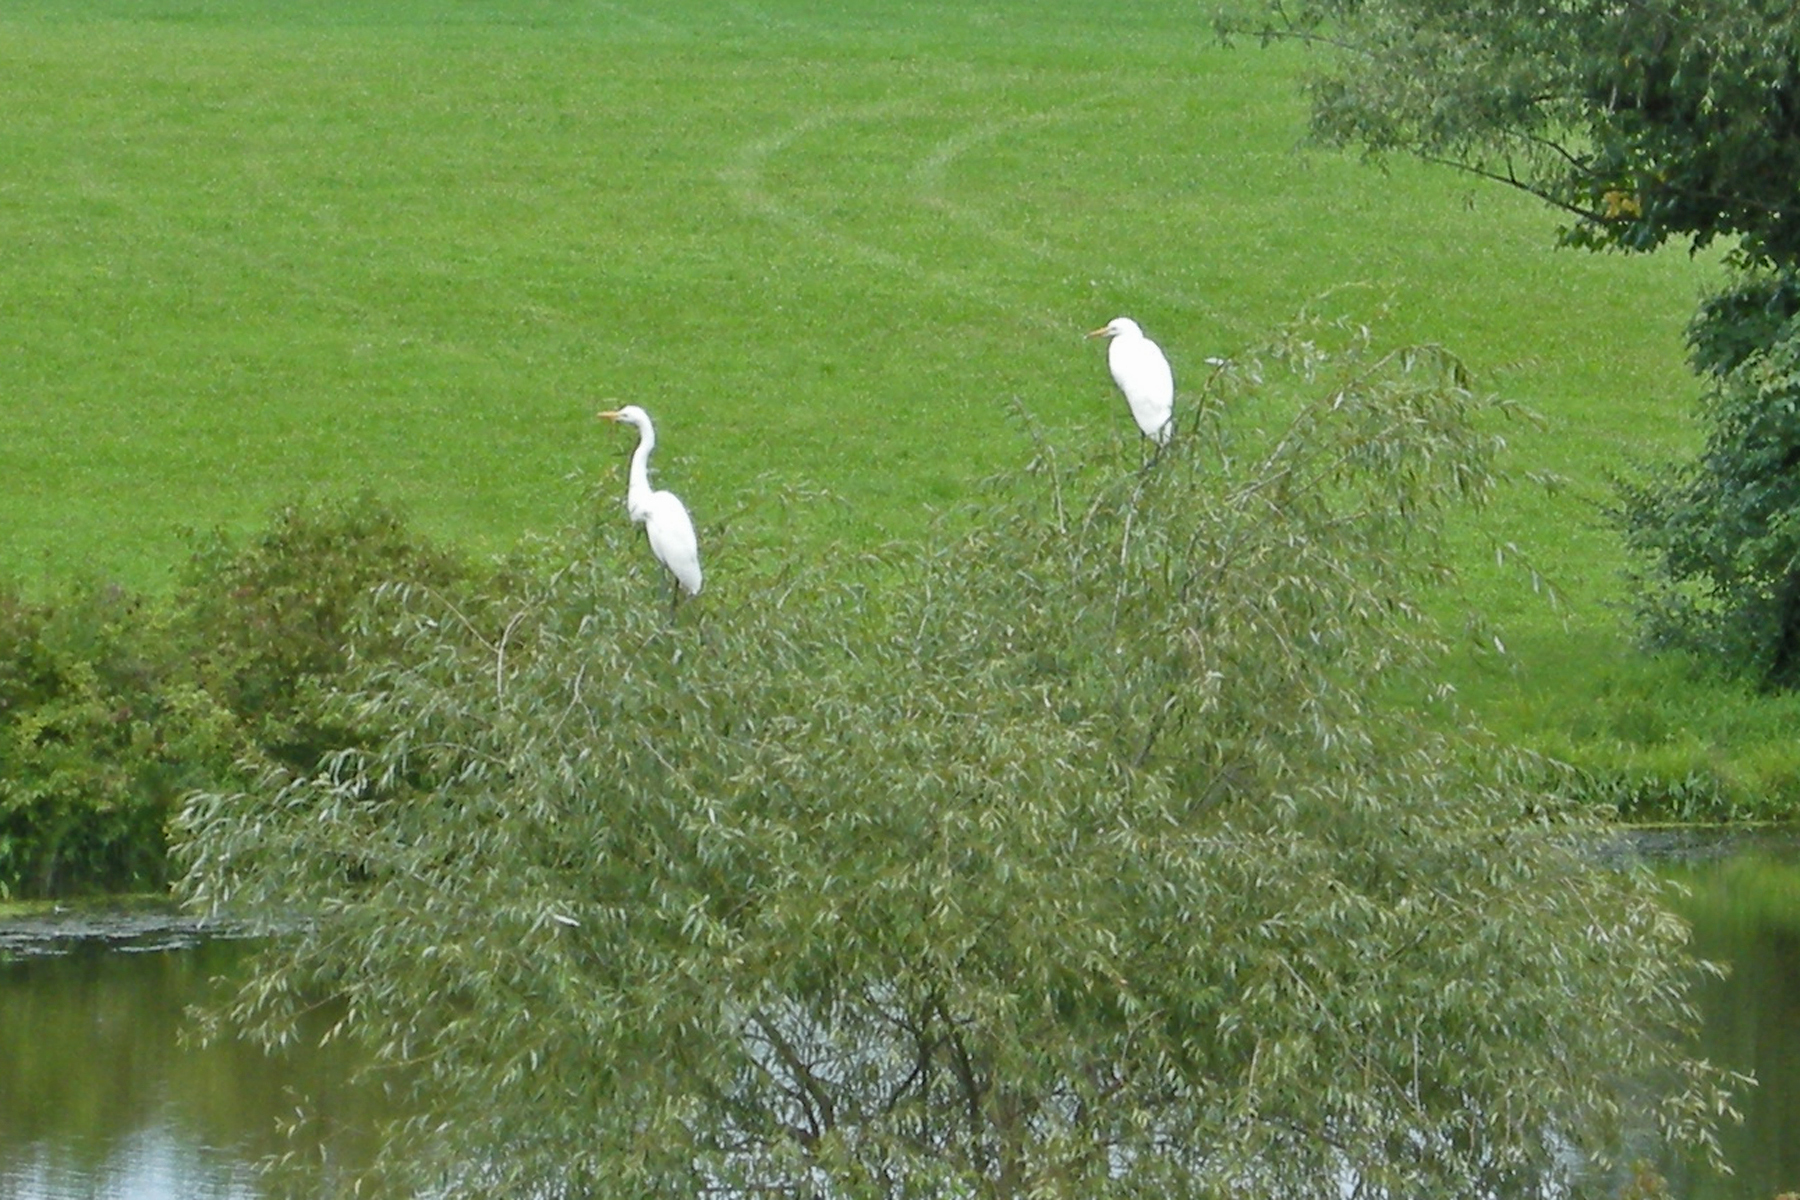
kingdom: Animalia
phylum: Chordata
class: Aves
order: Pelecaniformes
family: Ardeidae
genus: Ardea
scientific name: Ardea alba
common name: Great egret
